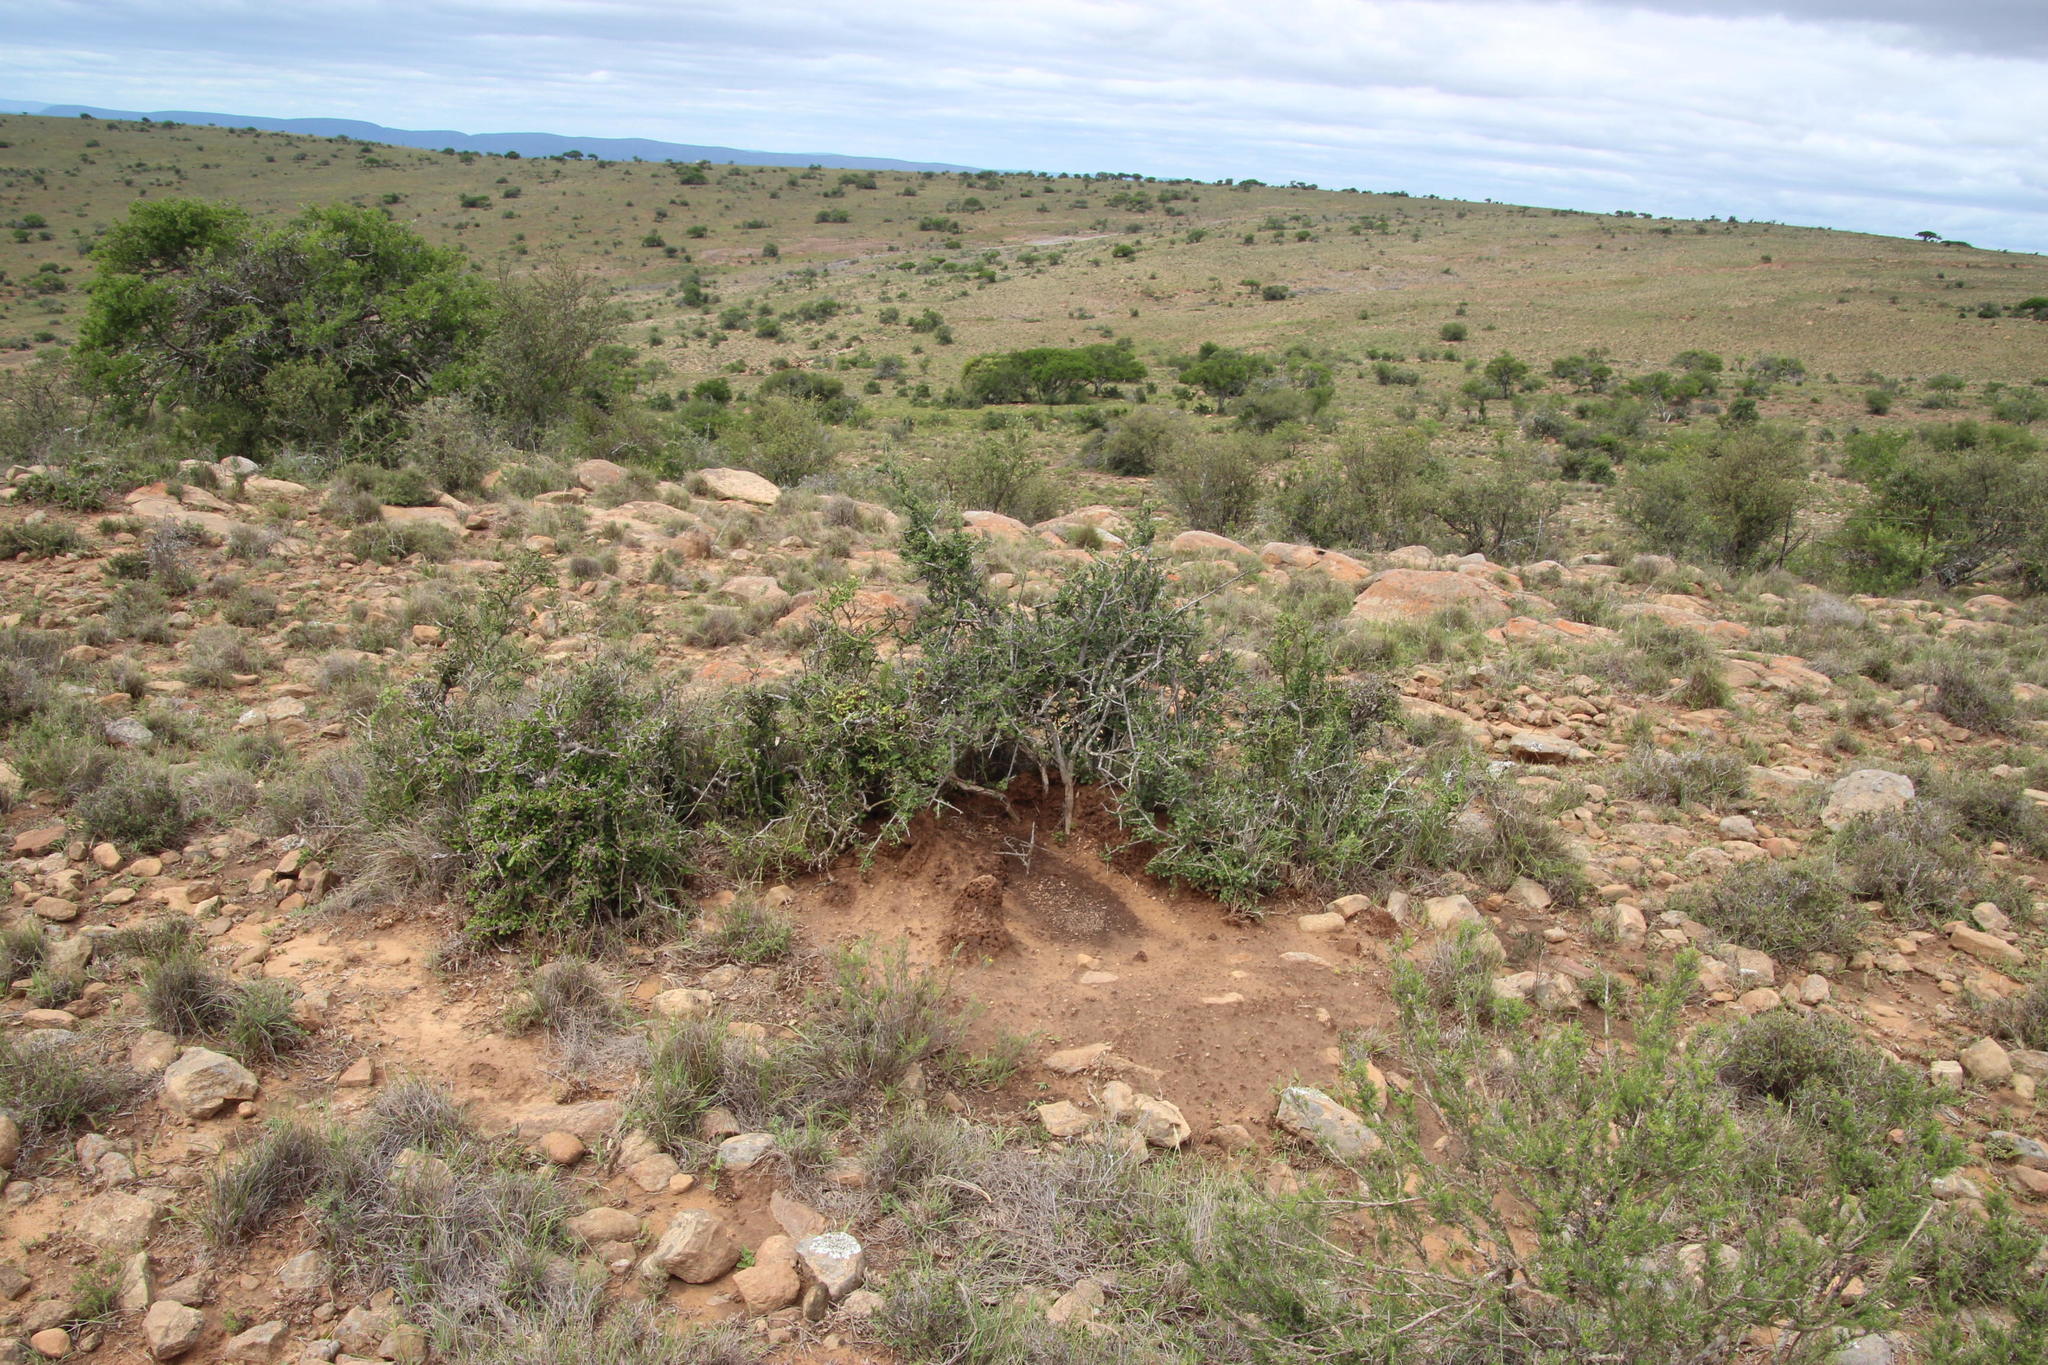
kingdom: Plantae
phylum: Tracheophyta
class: Magnoliopsida
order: Caryophyllales
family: Didiereaceae
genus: Portulacaria
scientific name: Portulacaria afra
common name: Elephant-bush
